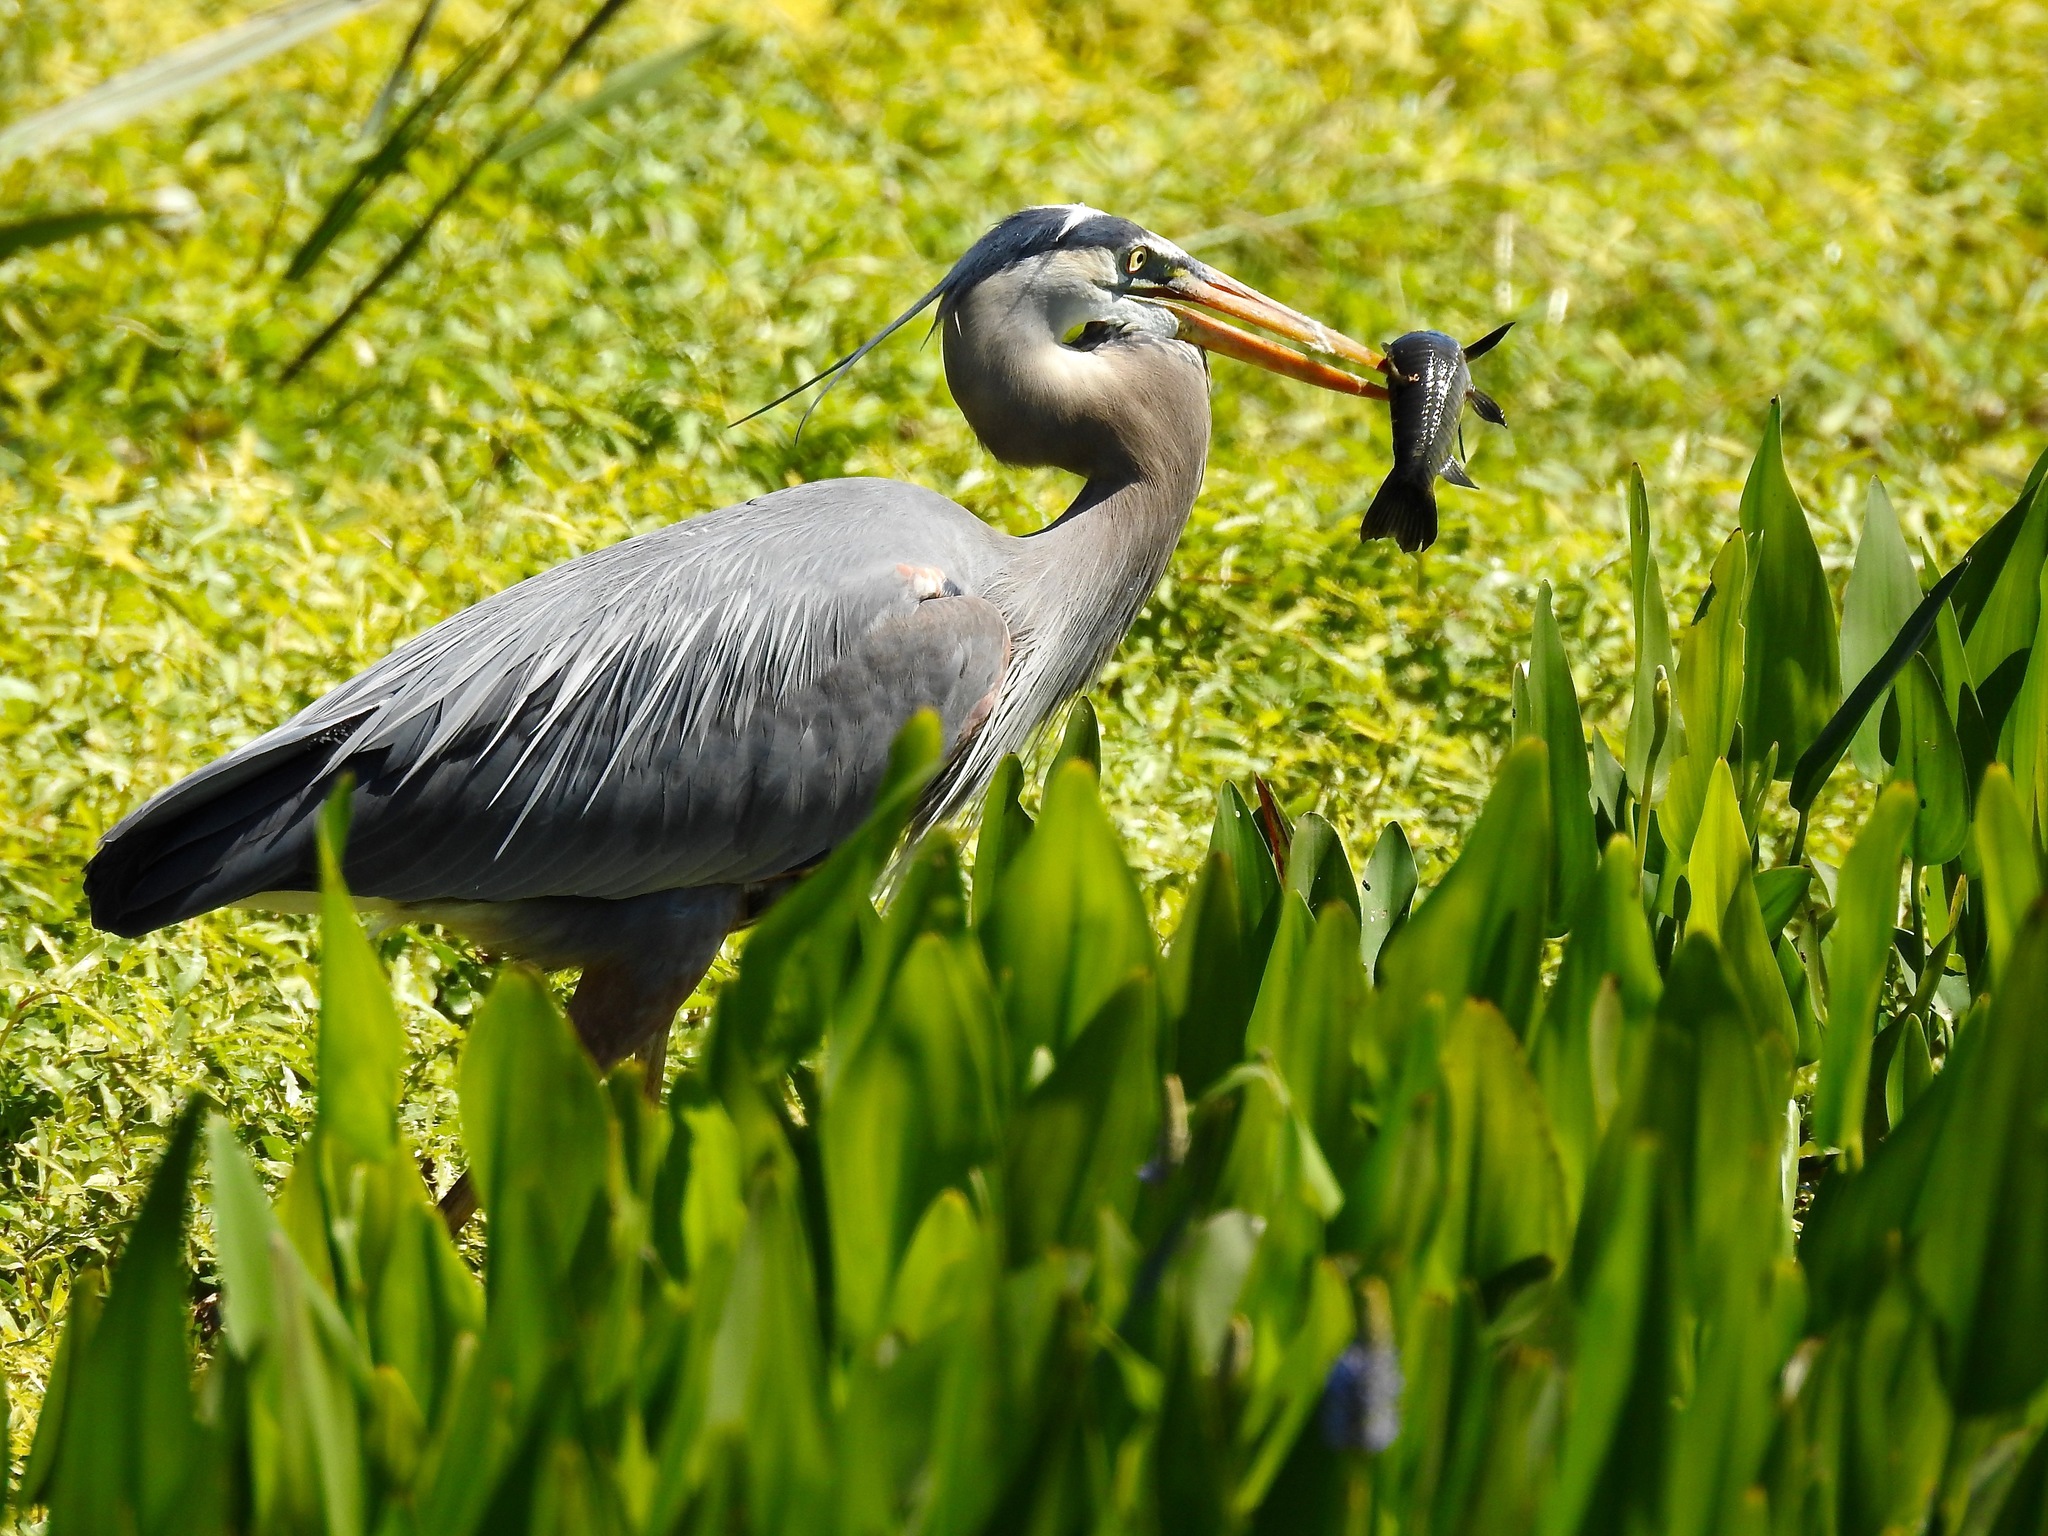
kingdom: Animalia
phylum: Chordata
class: Aves
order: Pelecaniformes
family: Ardeidae
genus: Ardea
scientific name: Ardea herodias
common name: Great blue heron
